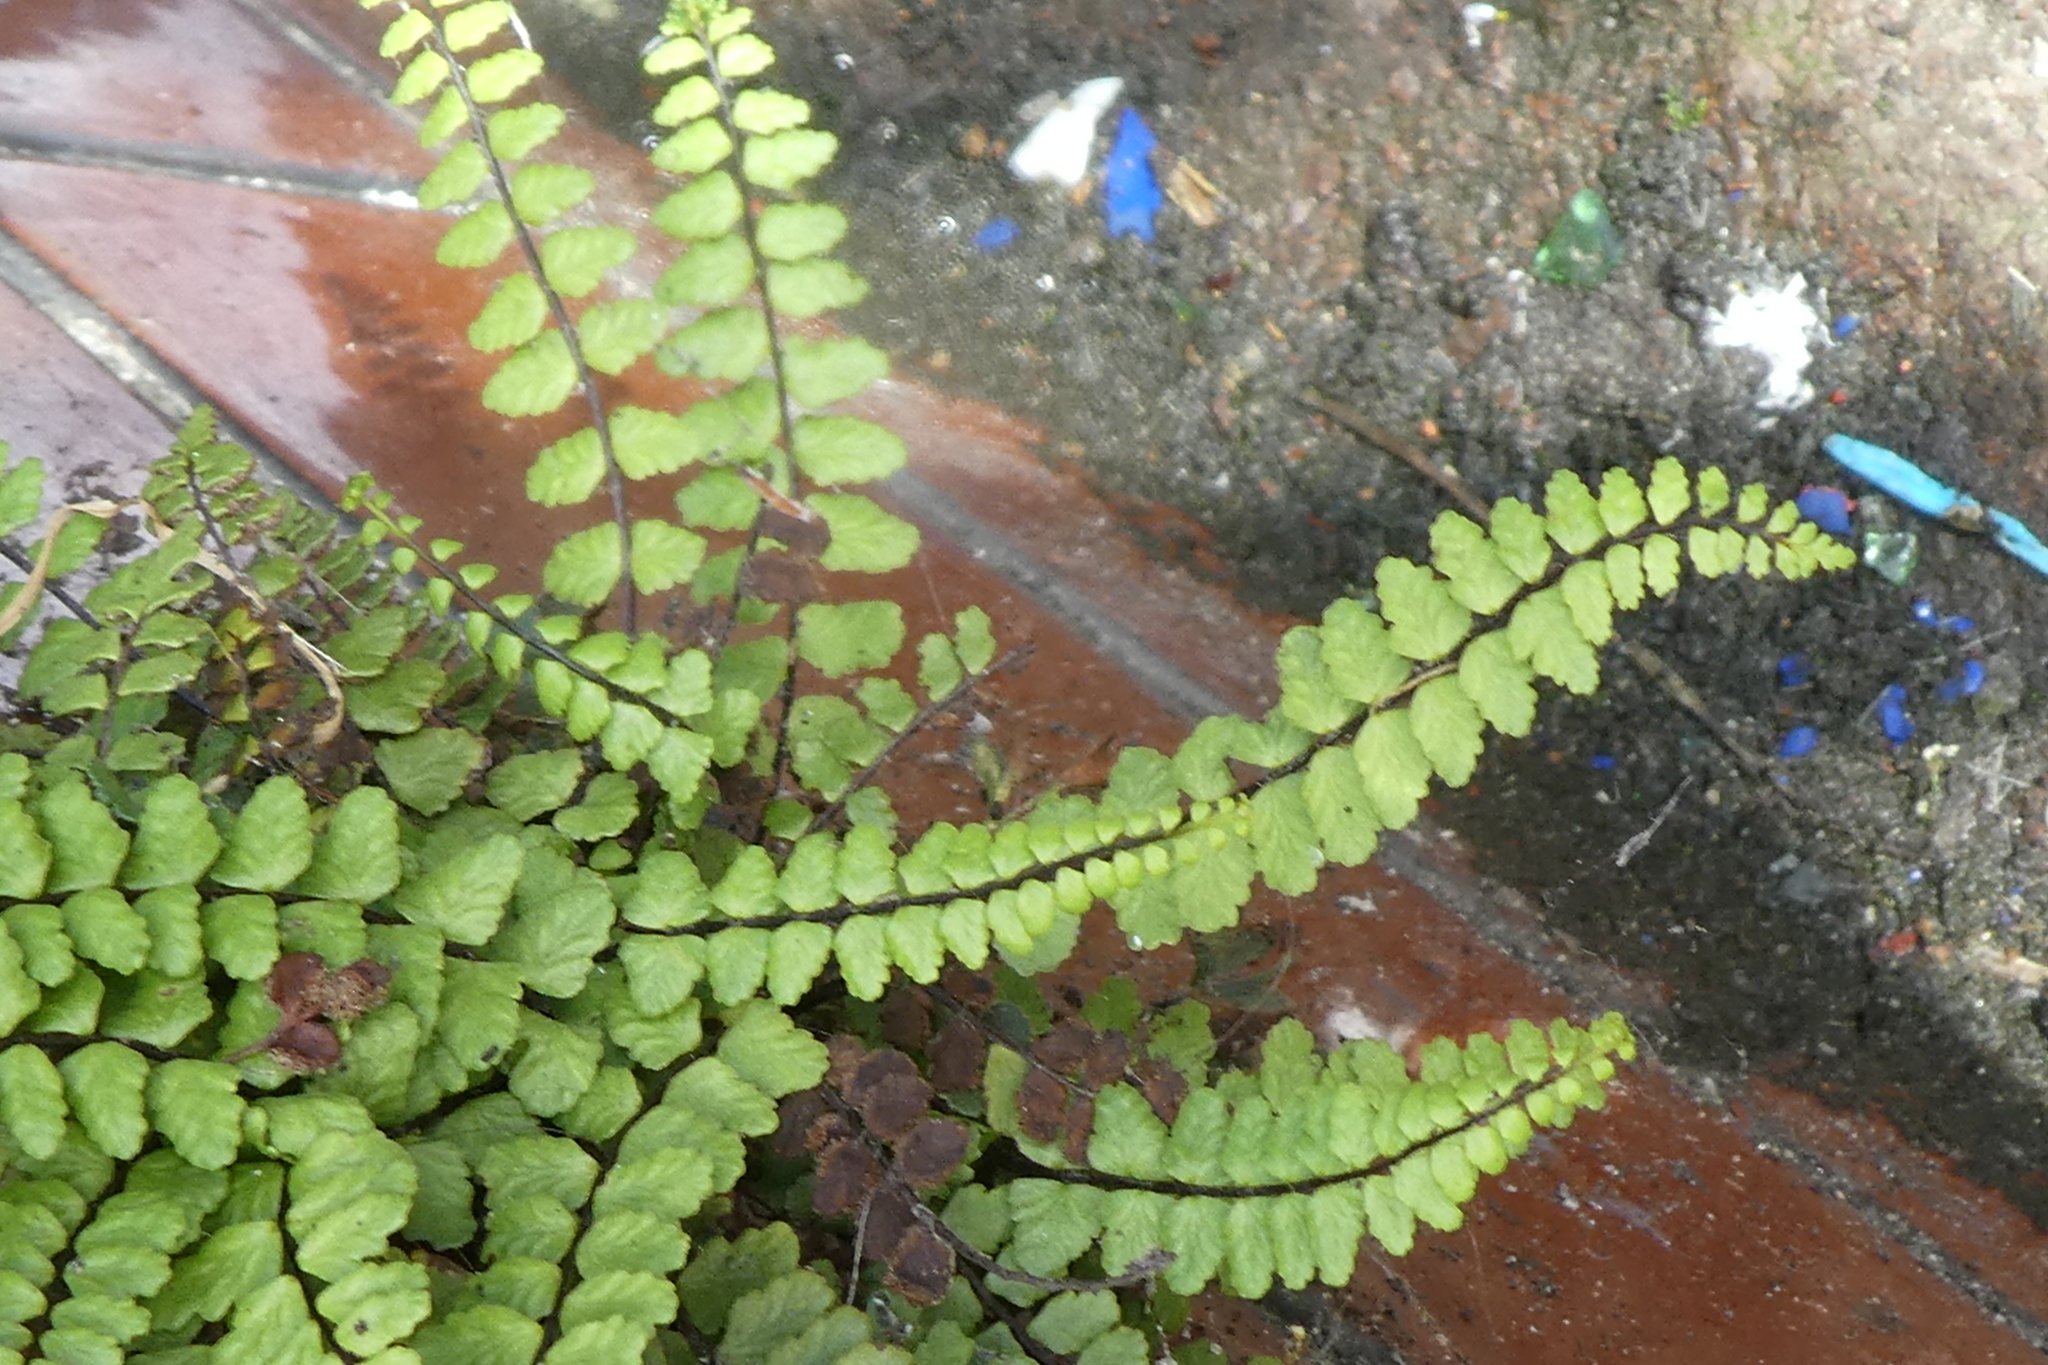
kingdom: Plantae
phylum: Tracheophyta
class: Polypodiopsida
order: Polypodiales
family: Aspleniaceae
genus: Asplenium
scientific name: Asplenium trichomanes
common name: Maidenhair spleenwort
